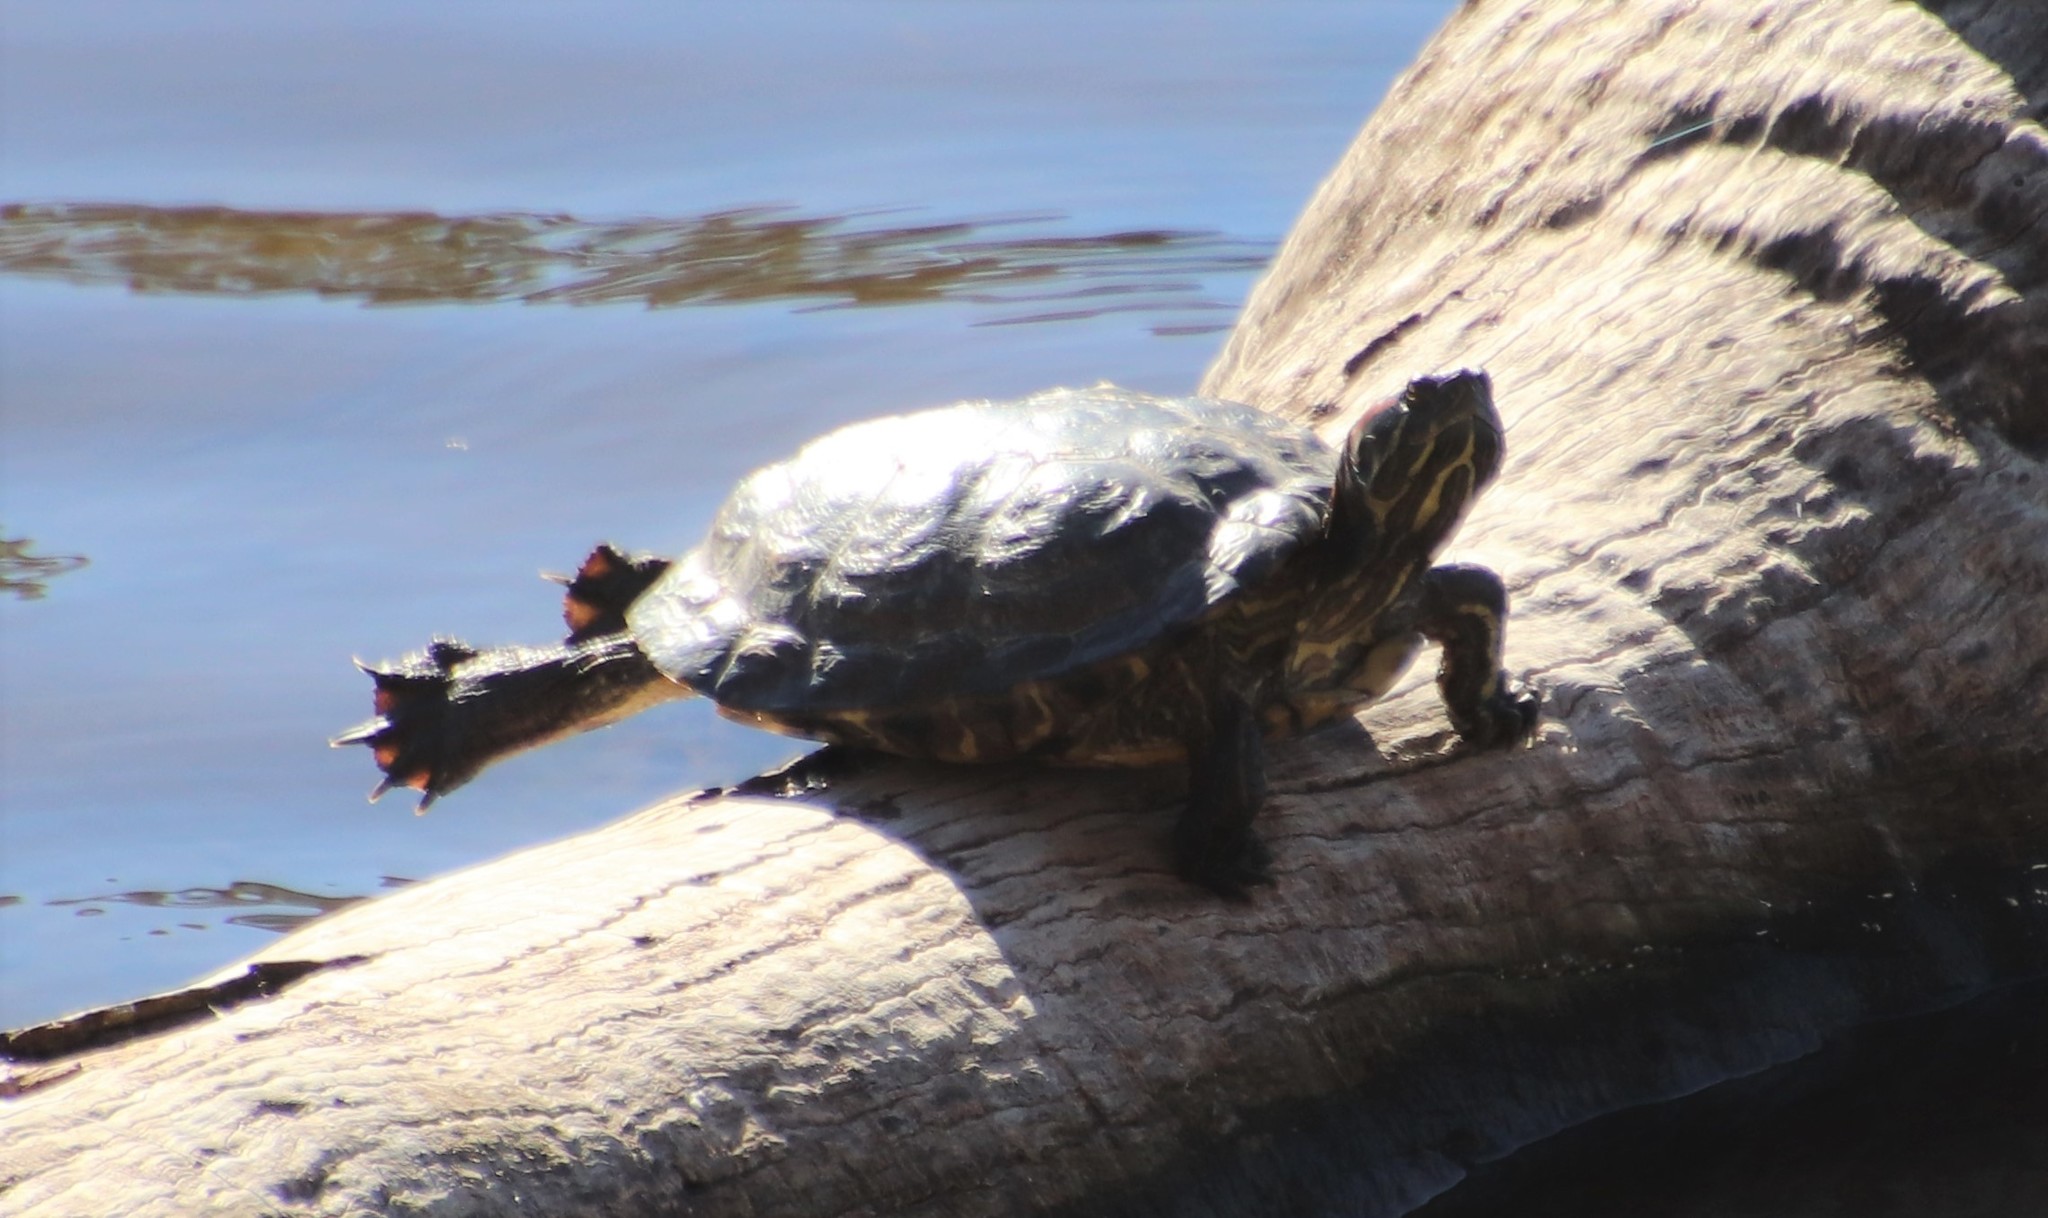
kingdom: Animalia
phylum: Chordata
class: Testudines
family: Emydidae
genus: Trachemys
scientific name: Trachemys scripta
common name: Slider
